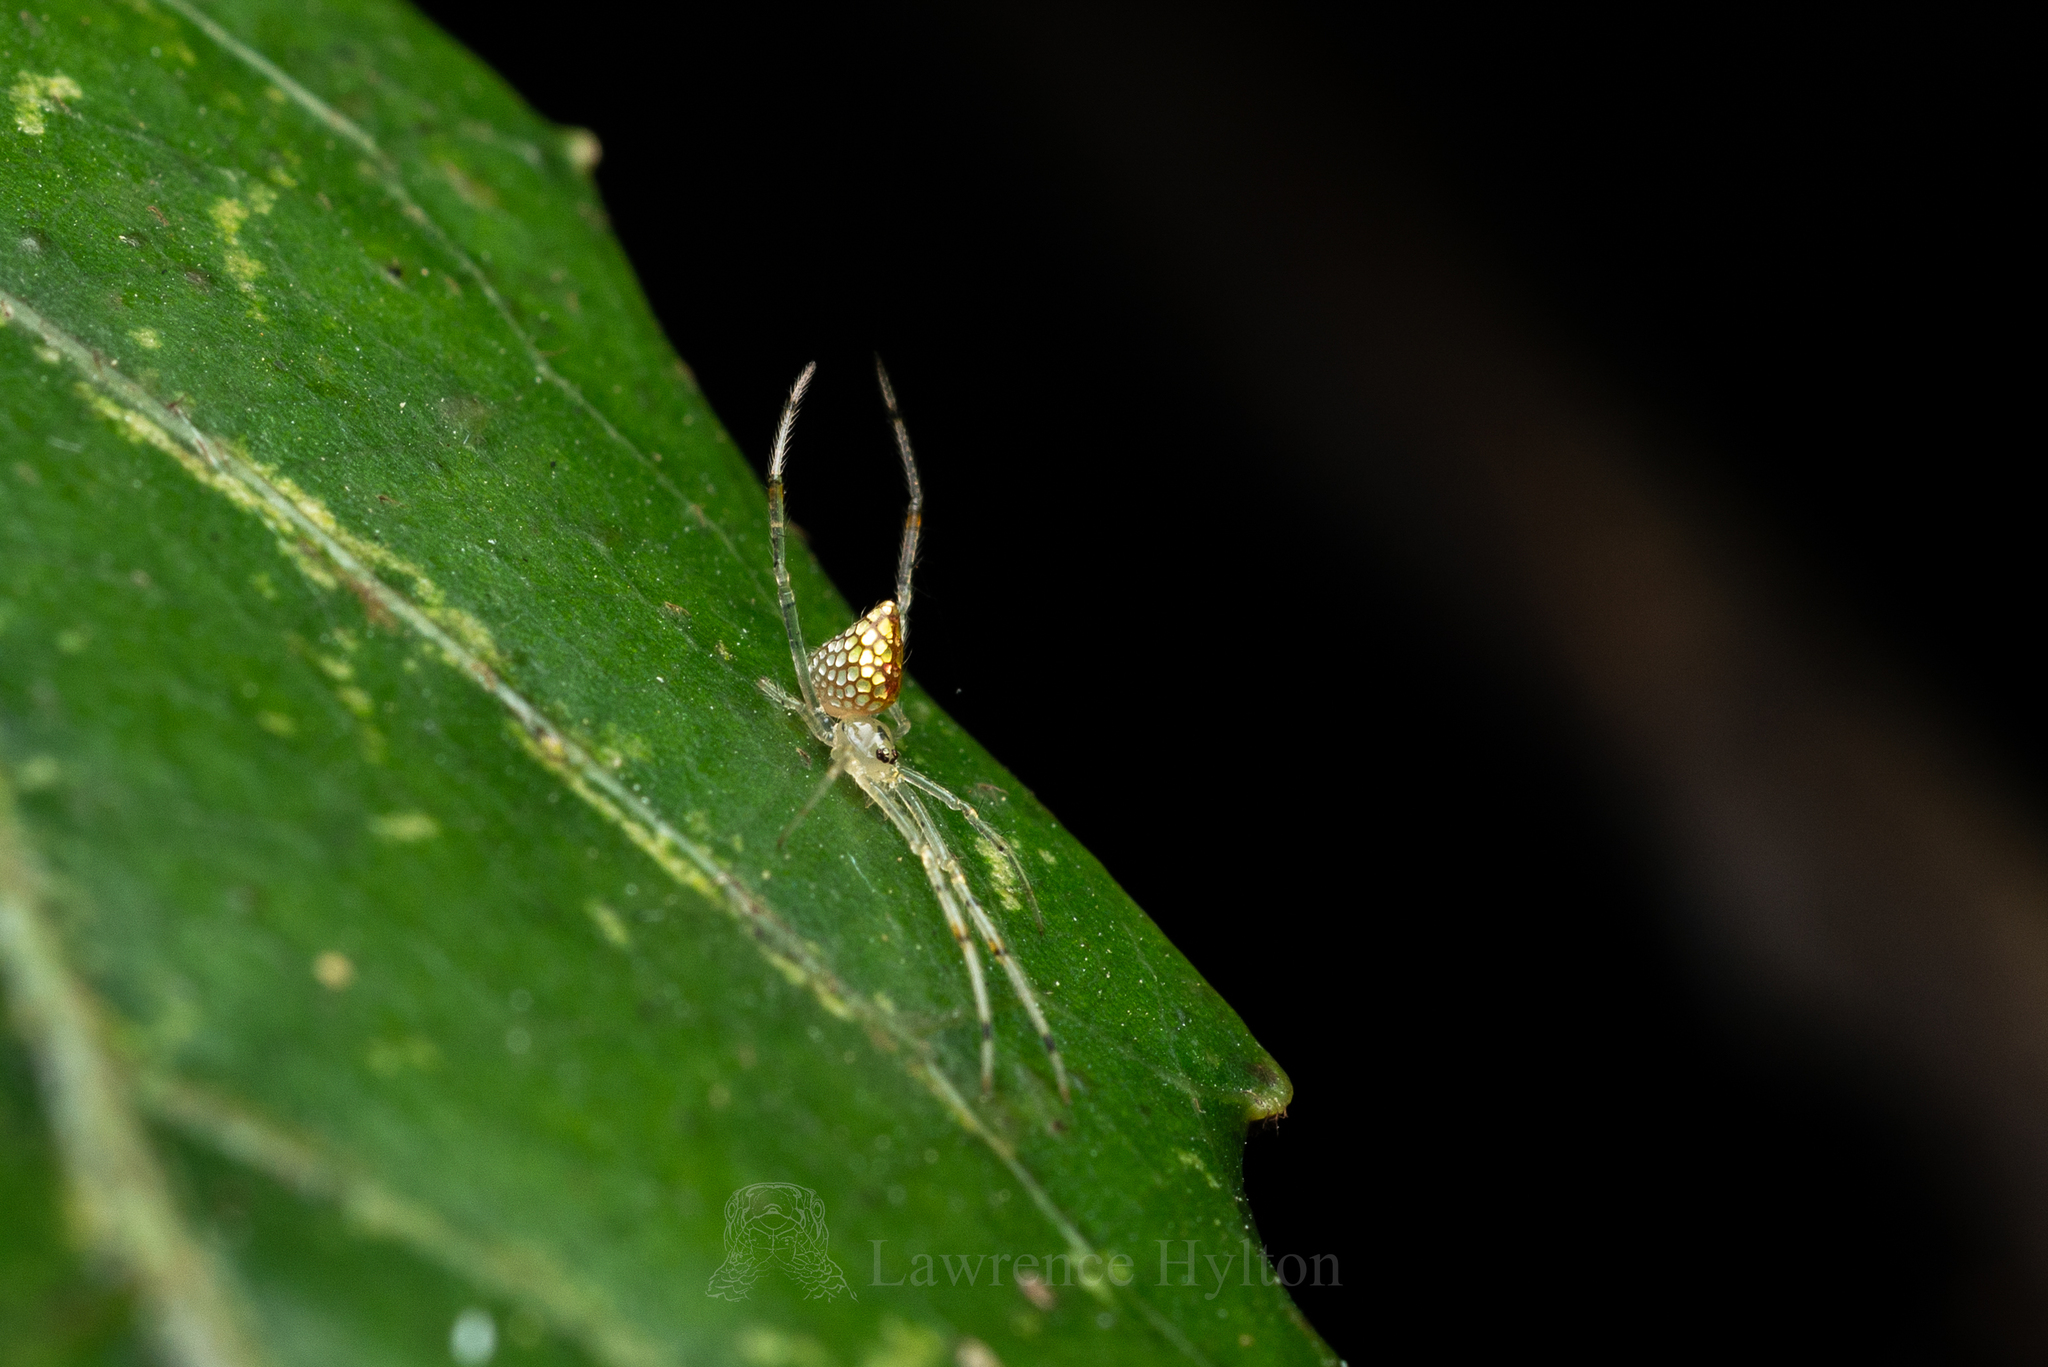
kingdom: Animalia
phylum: Arthropoda
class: Arachnida
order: Araneae
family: Theridiidae
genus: Thwaitesia
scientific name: Thwaitesia margaritifera
